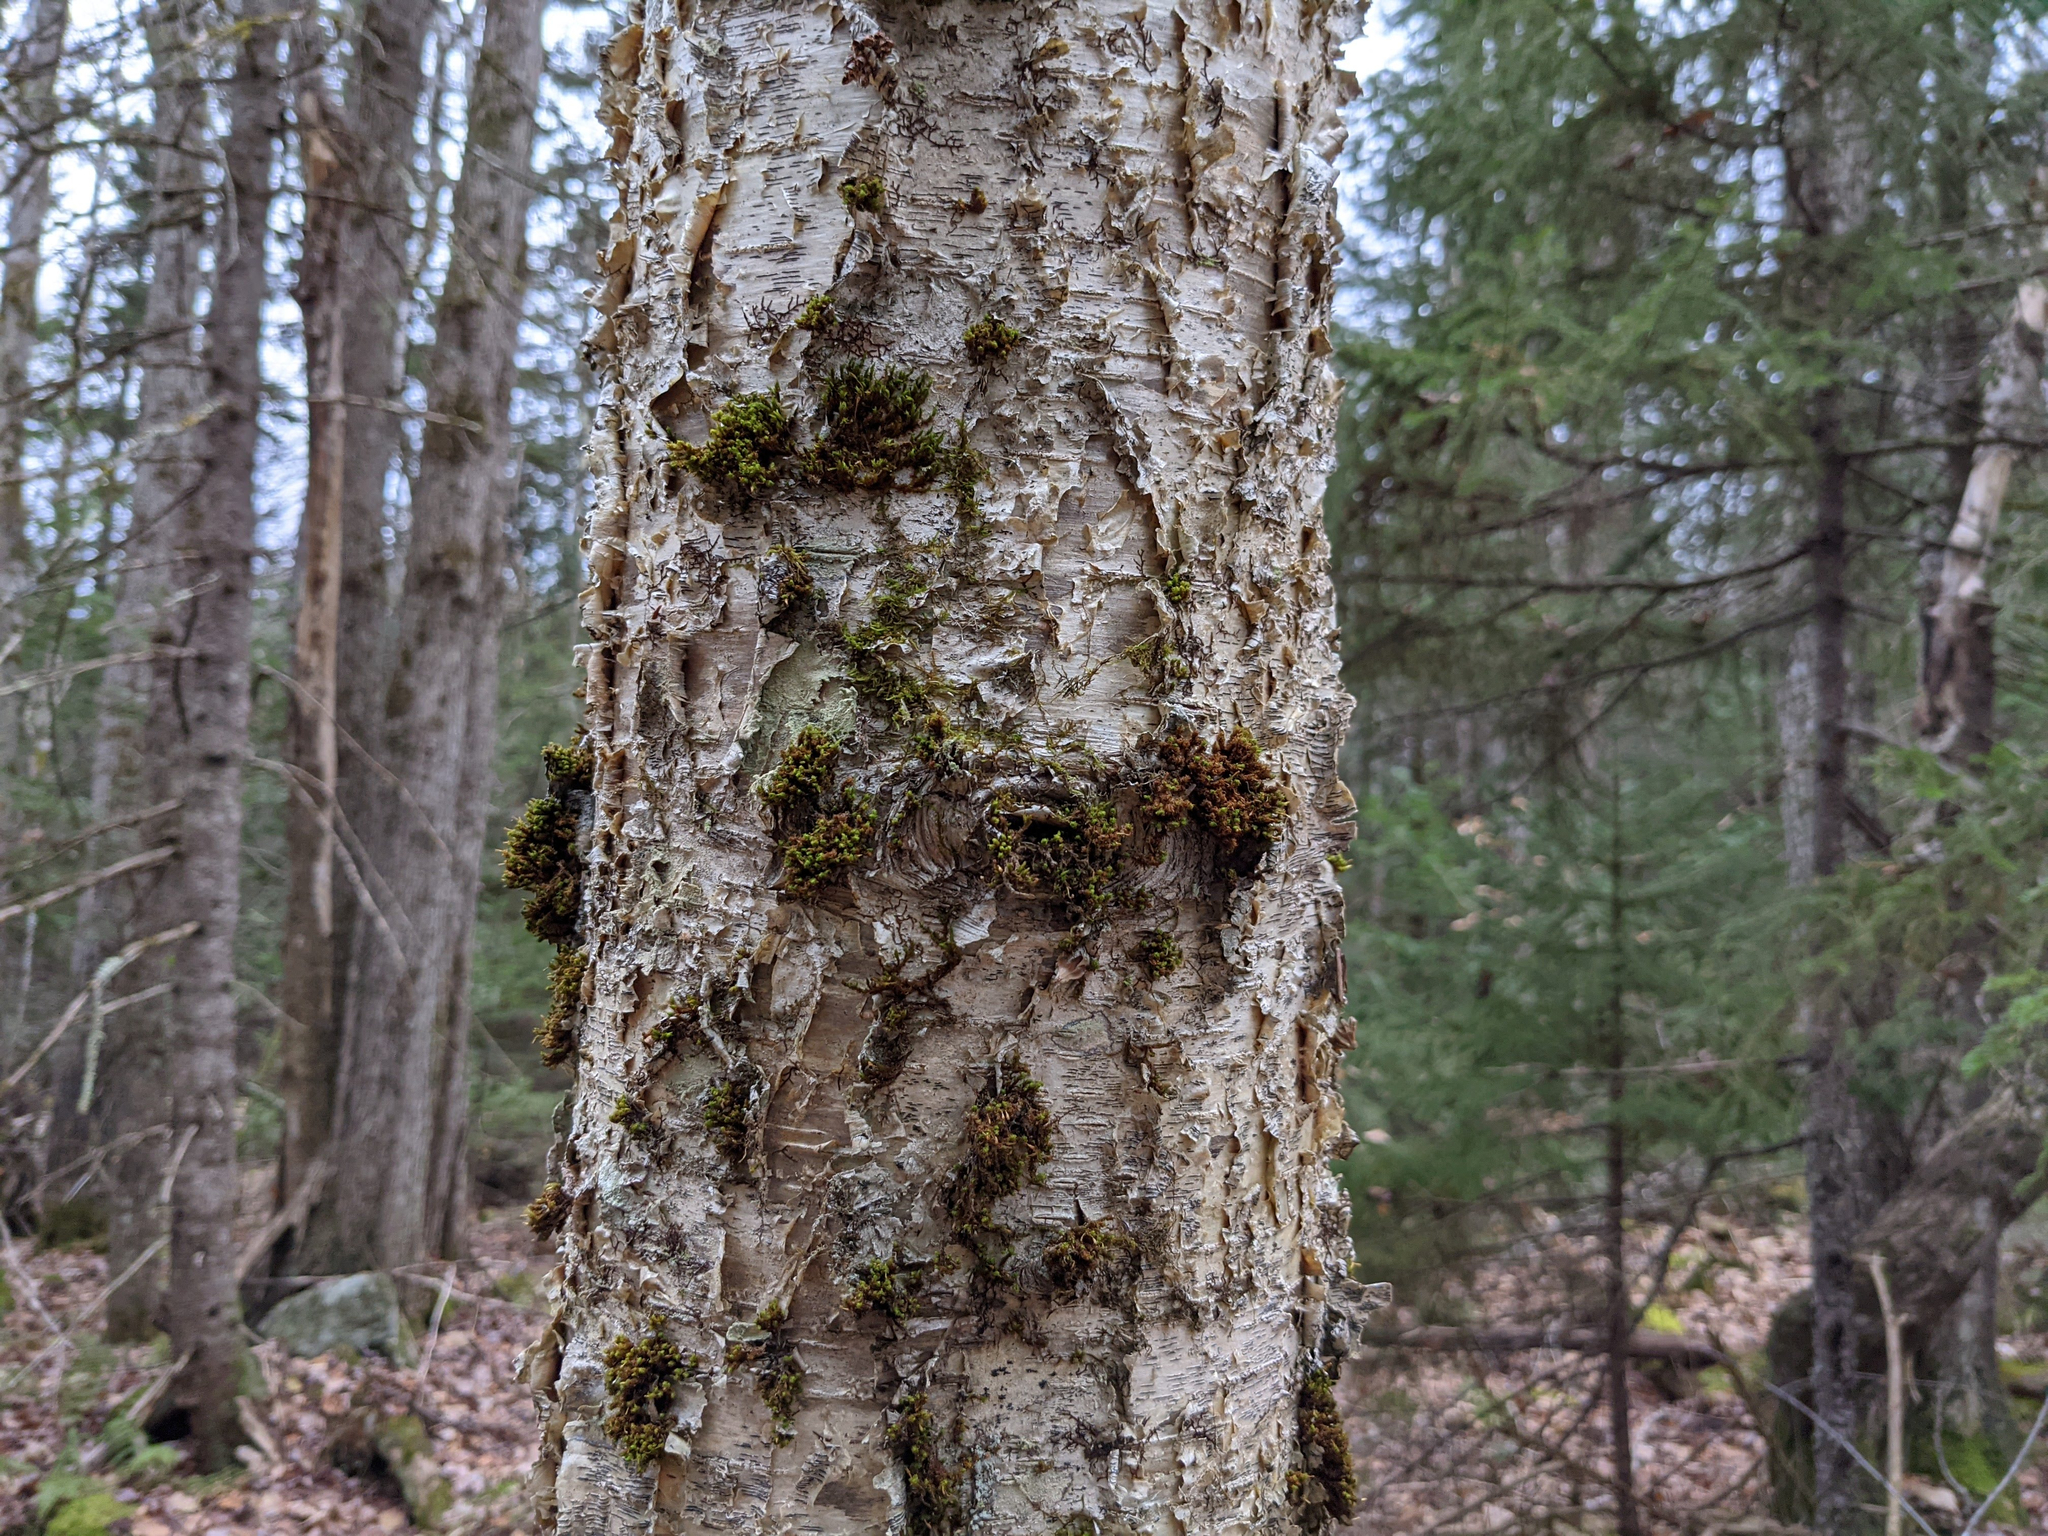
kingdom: Plantae
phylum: Bryophyta
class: Bryopsida
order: Orthotrichales
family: Orthotrichaceae
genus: Ulota
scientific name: Ulota crispa
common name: Crisped pincushion moss
